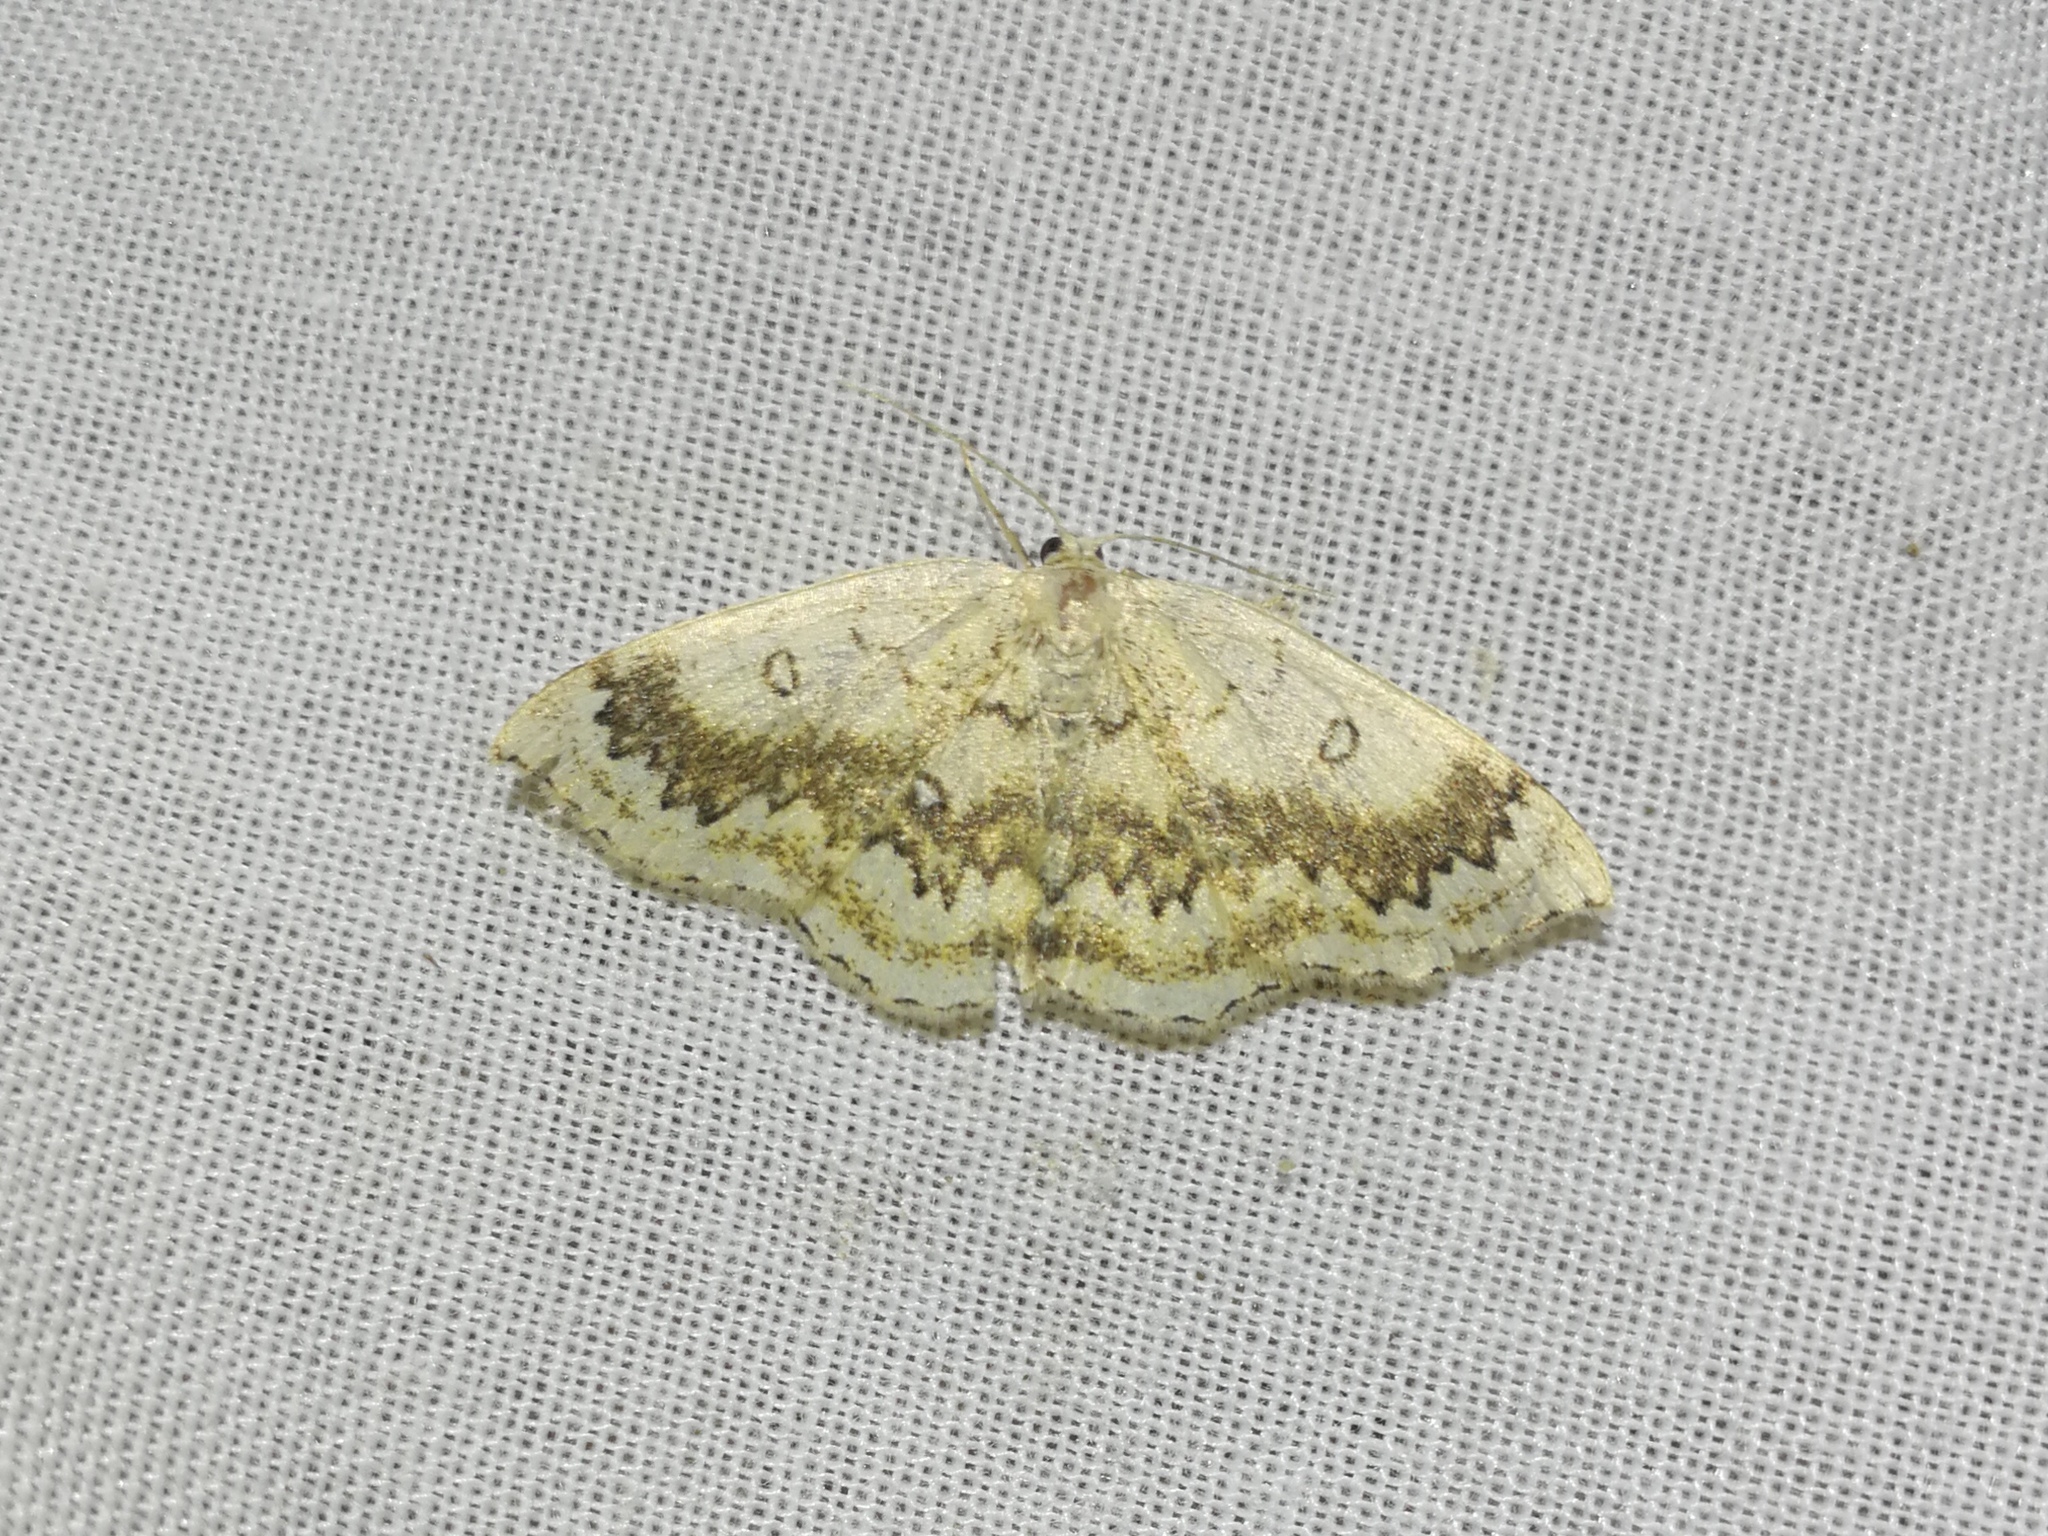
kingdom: Animalia
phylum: Arthropoda
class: Insecta
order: Lepidoptera
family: Geometridae
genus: Cyclophora
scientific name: Cyclophora annularia
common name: Mocha
